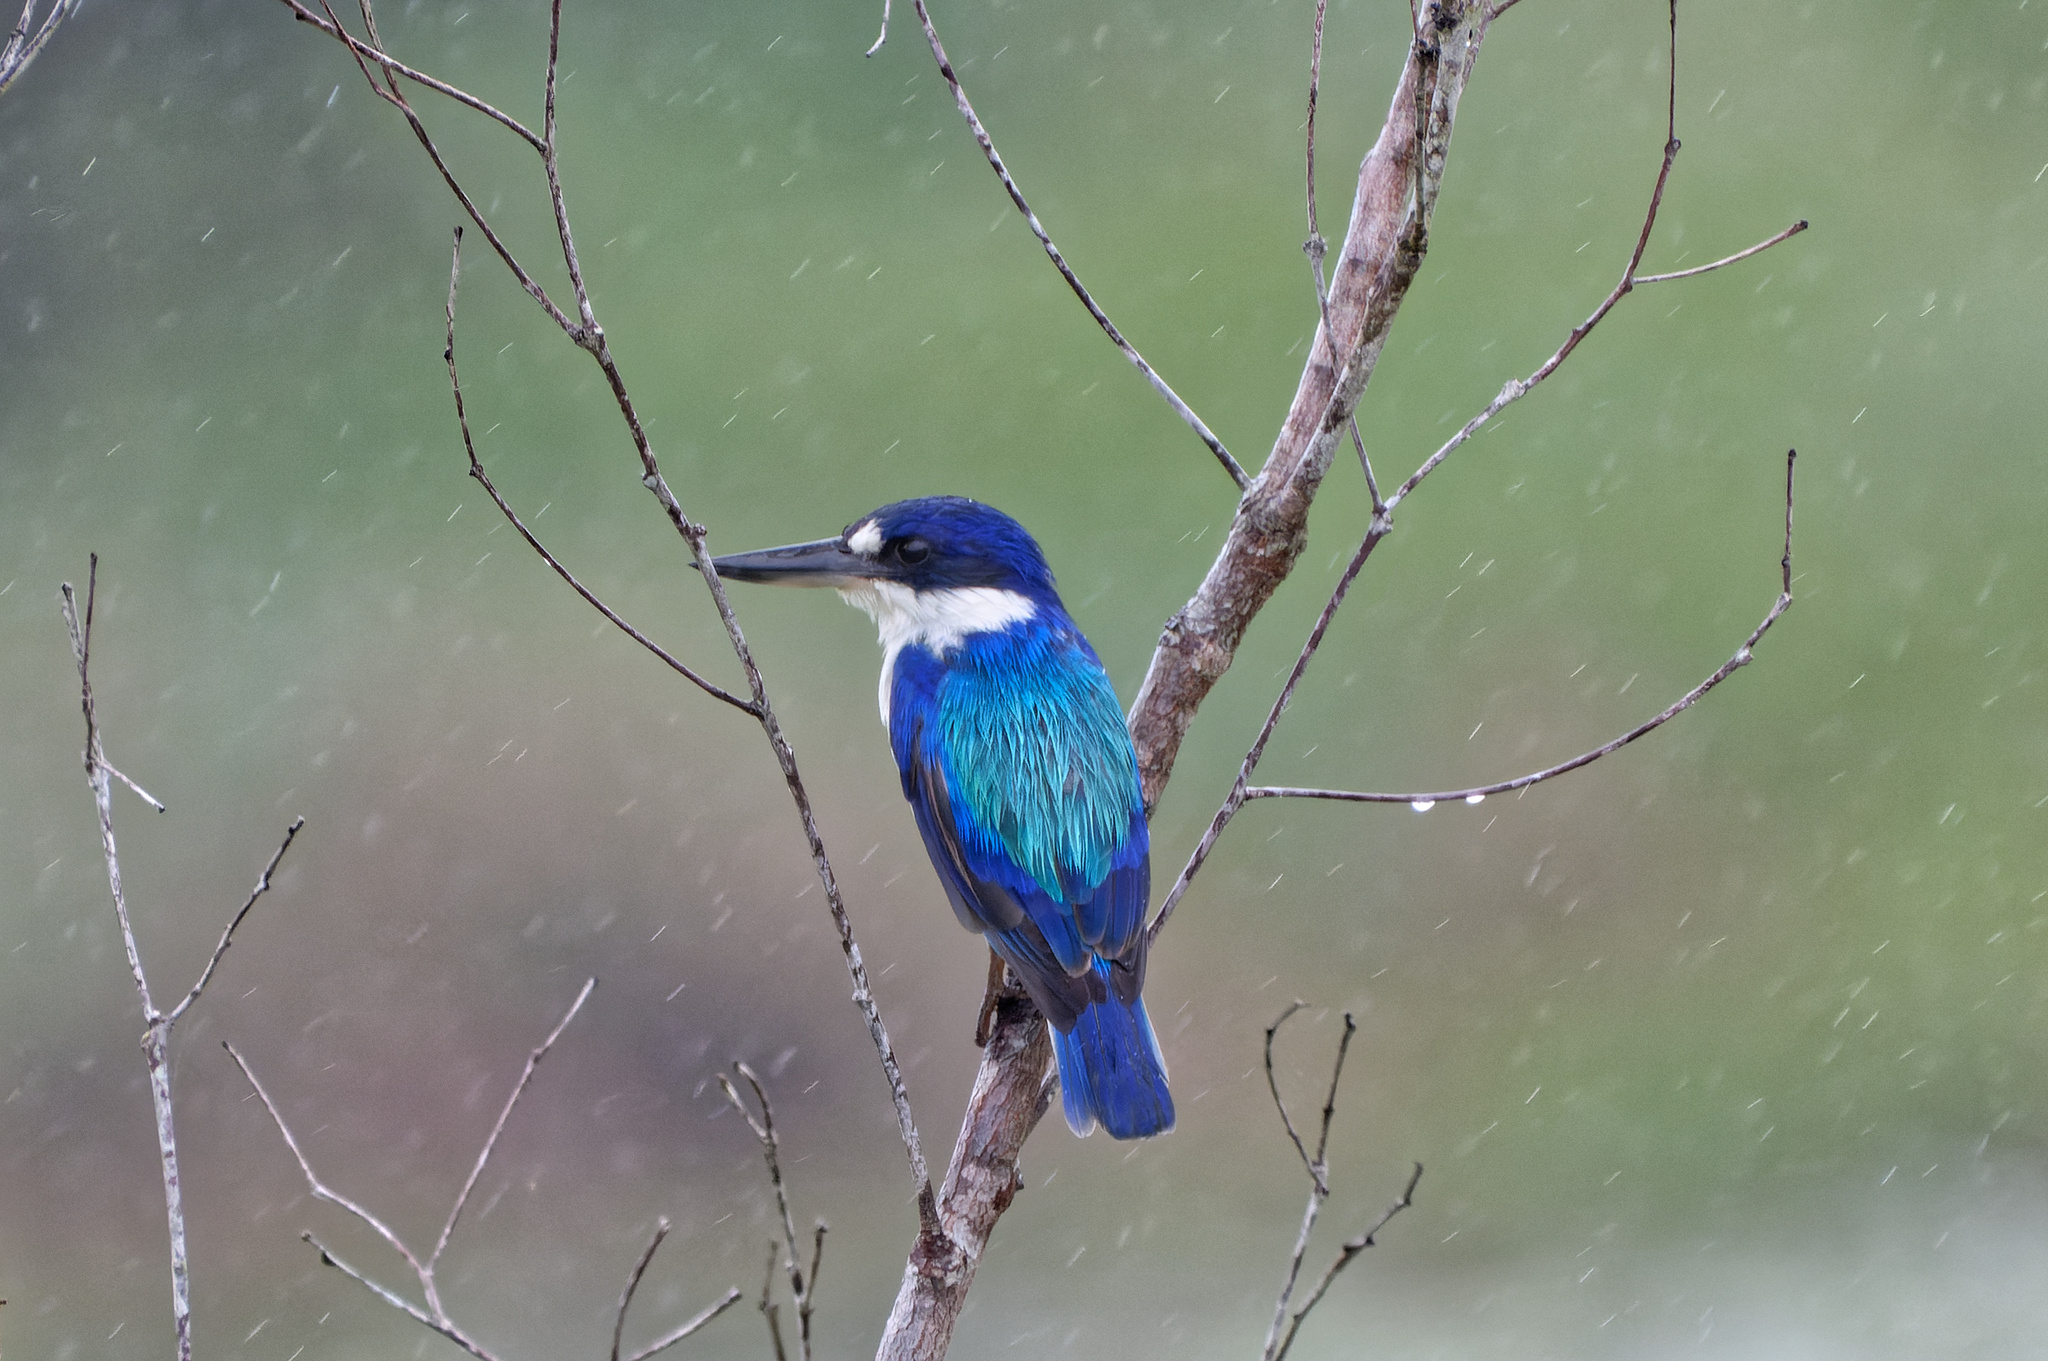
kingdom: Animalia
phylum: Chordata
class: Aves
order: Coraciiformes
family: Alcedinidae
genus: Todiramphus
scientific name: Todiramphus macleayii
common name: Forest kingfisher
